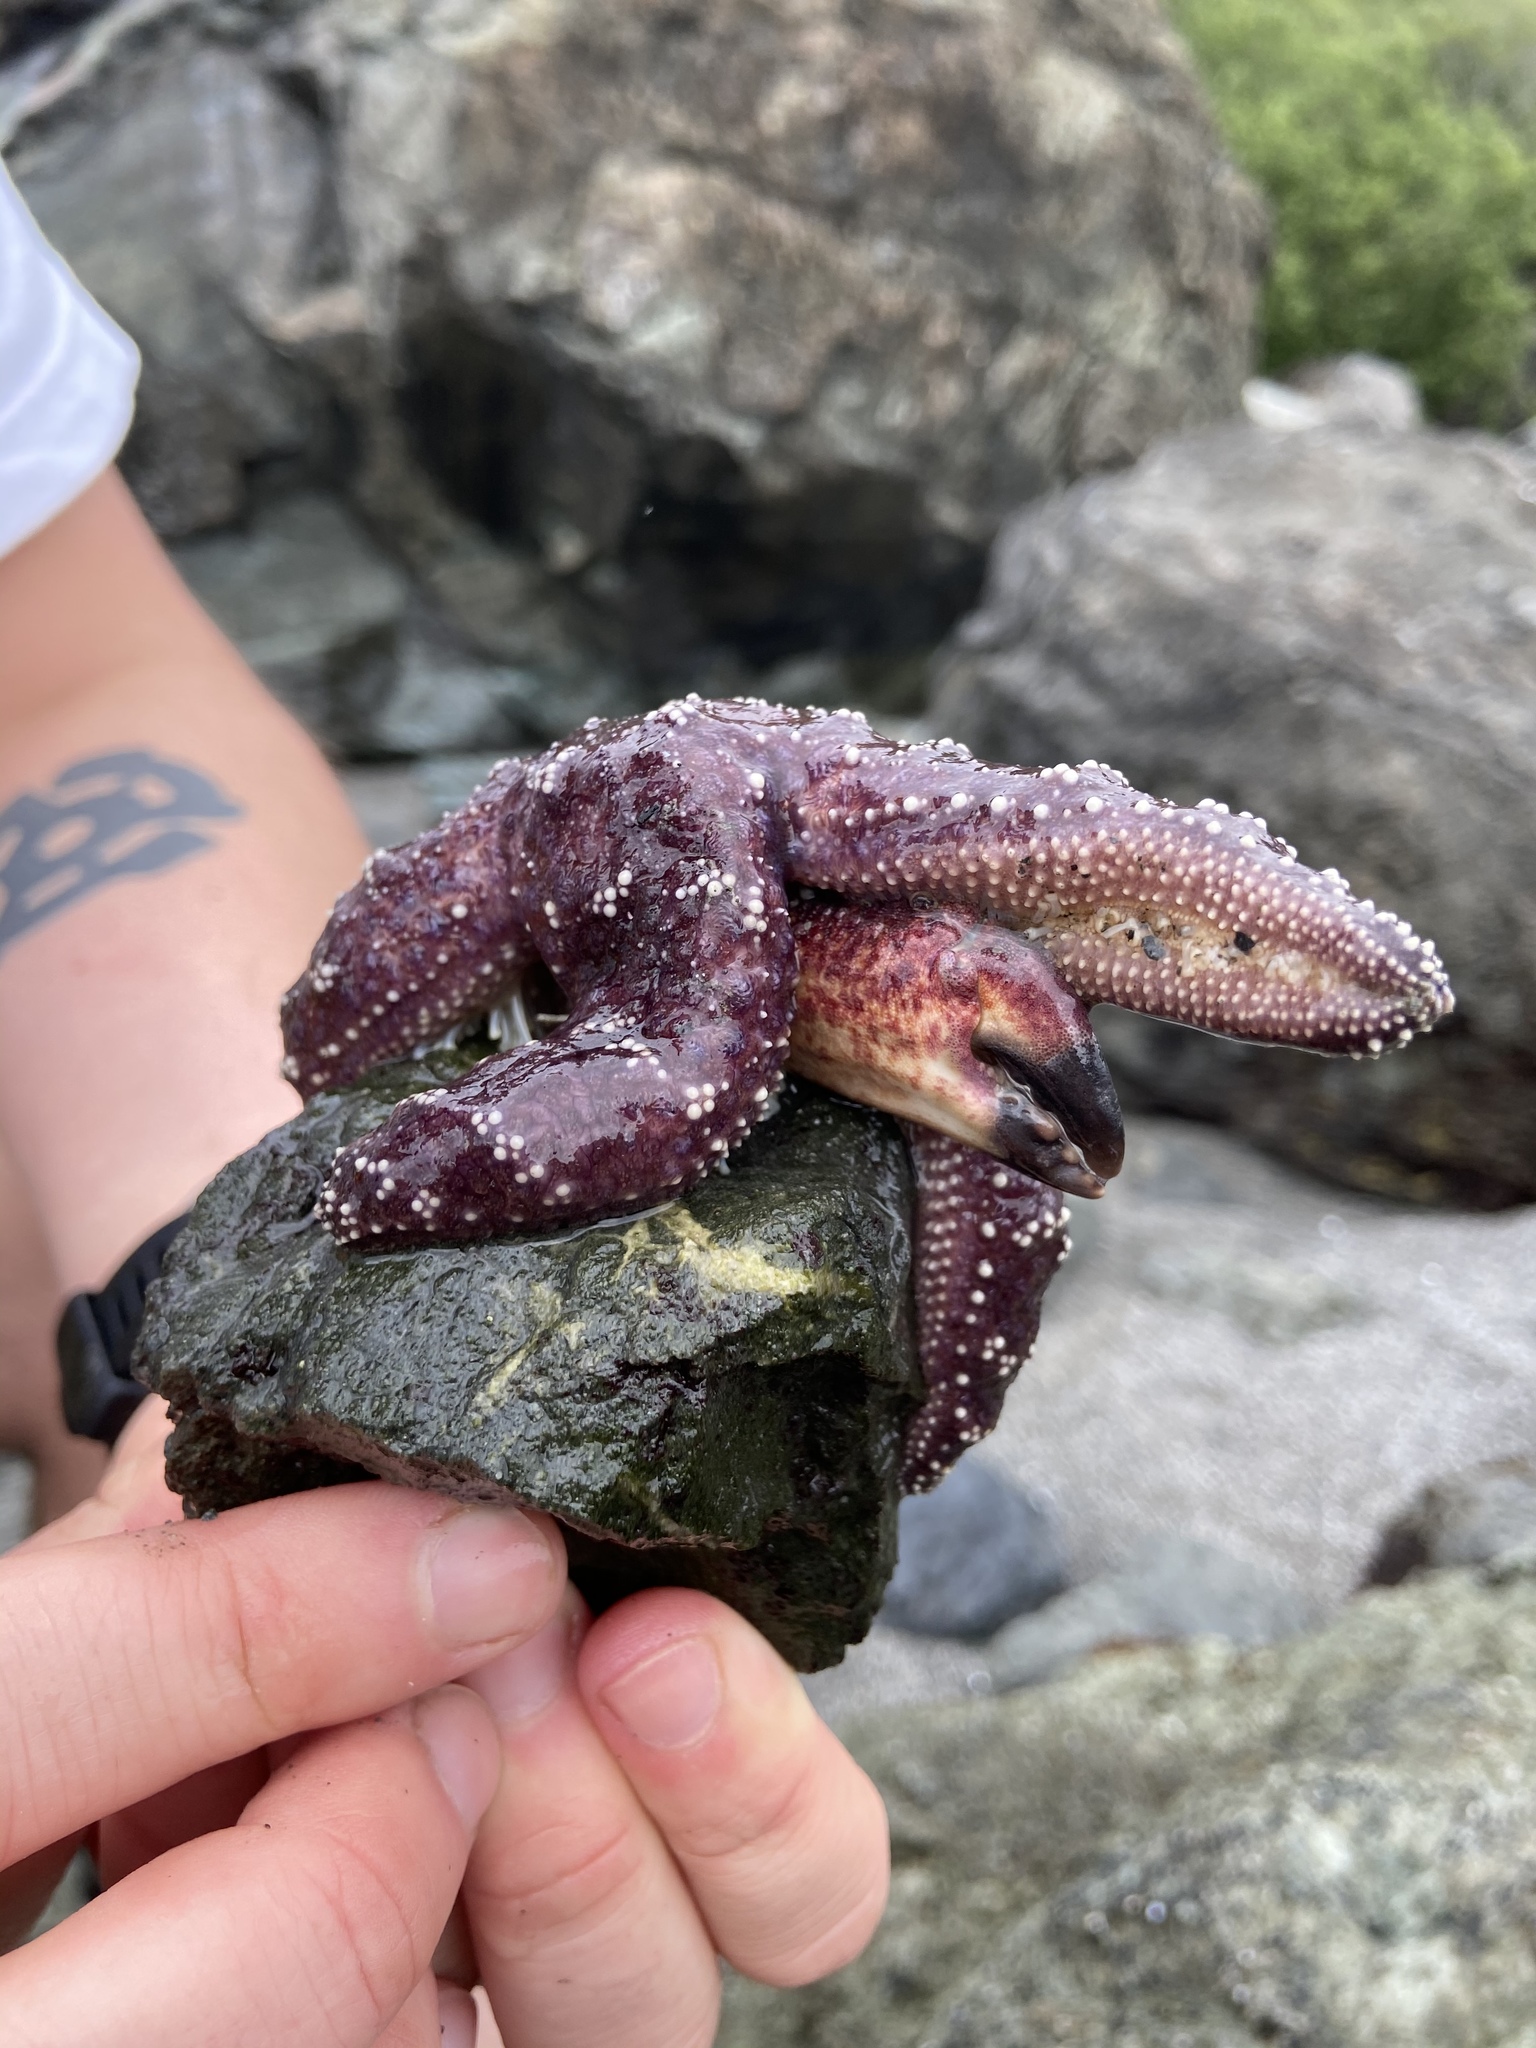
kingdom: Animalia
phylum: Echinodermata
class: Asteroidea
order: Forcipulatida
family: Asteriidae
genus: Pisaster
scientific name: Pisaster ochraceus
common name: Ochre stars
